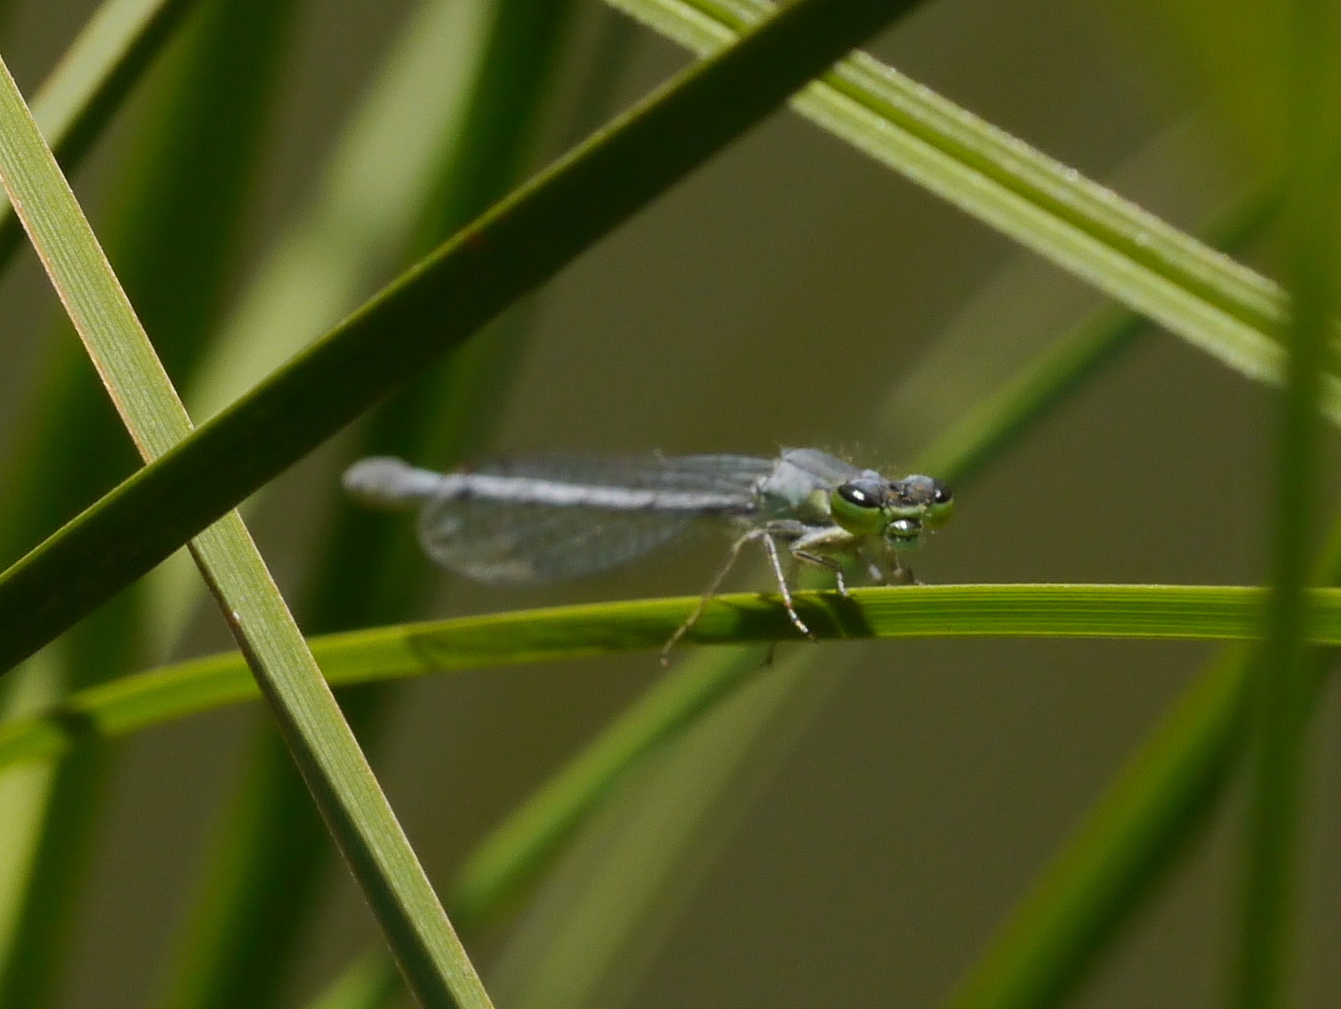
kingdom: Animalia
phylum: Arthropoda
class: Insecta
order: Odonata
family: Coenagrionidae
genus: Ischnura
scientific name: Ischnura perparva
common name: Western forktail
